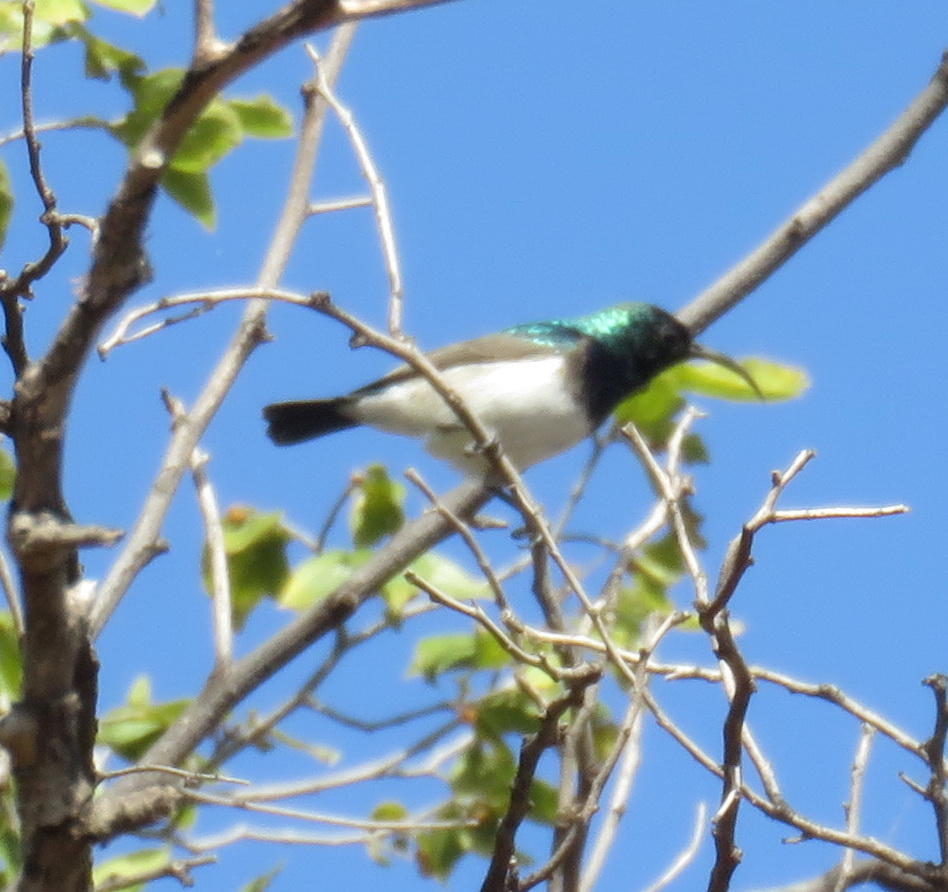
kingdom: Animalia
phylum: Chordata
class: Aves
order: Passeriformes
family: Nectariniidae
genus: Cinnyris
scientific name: Cinnyris talatala
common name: White-bellied sunbird
